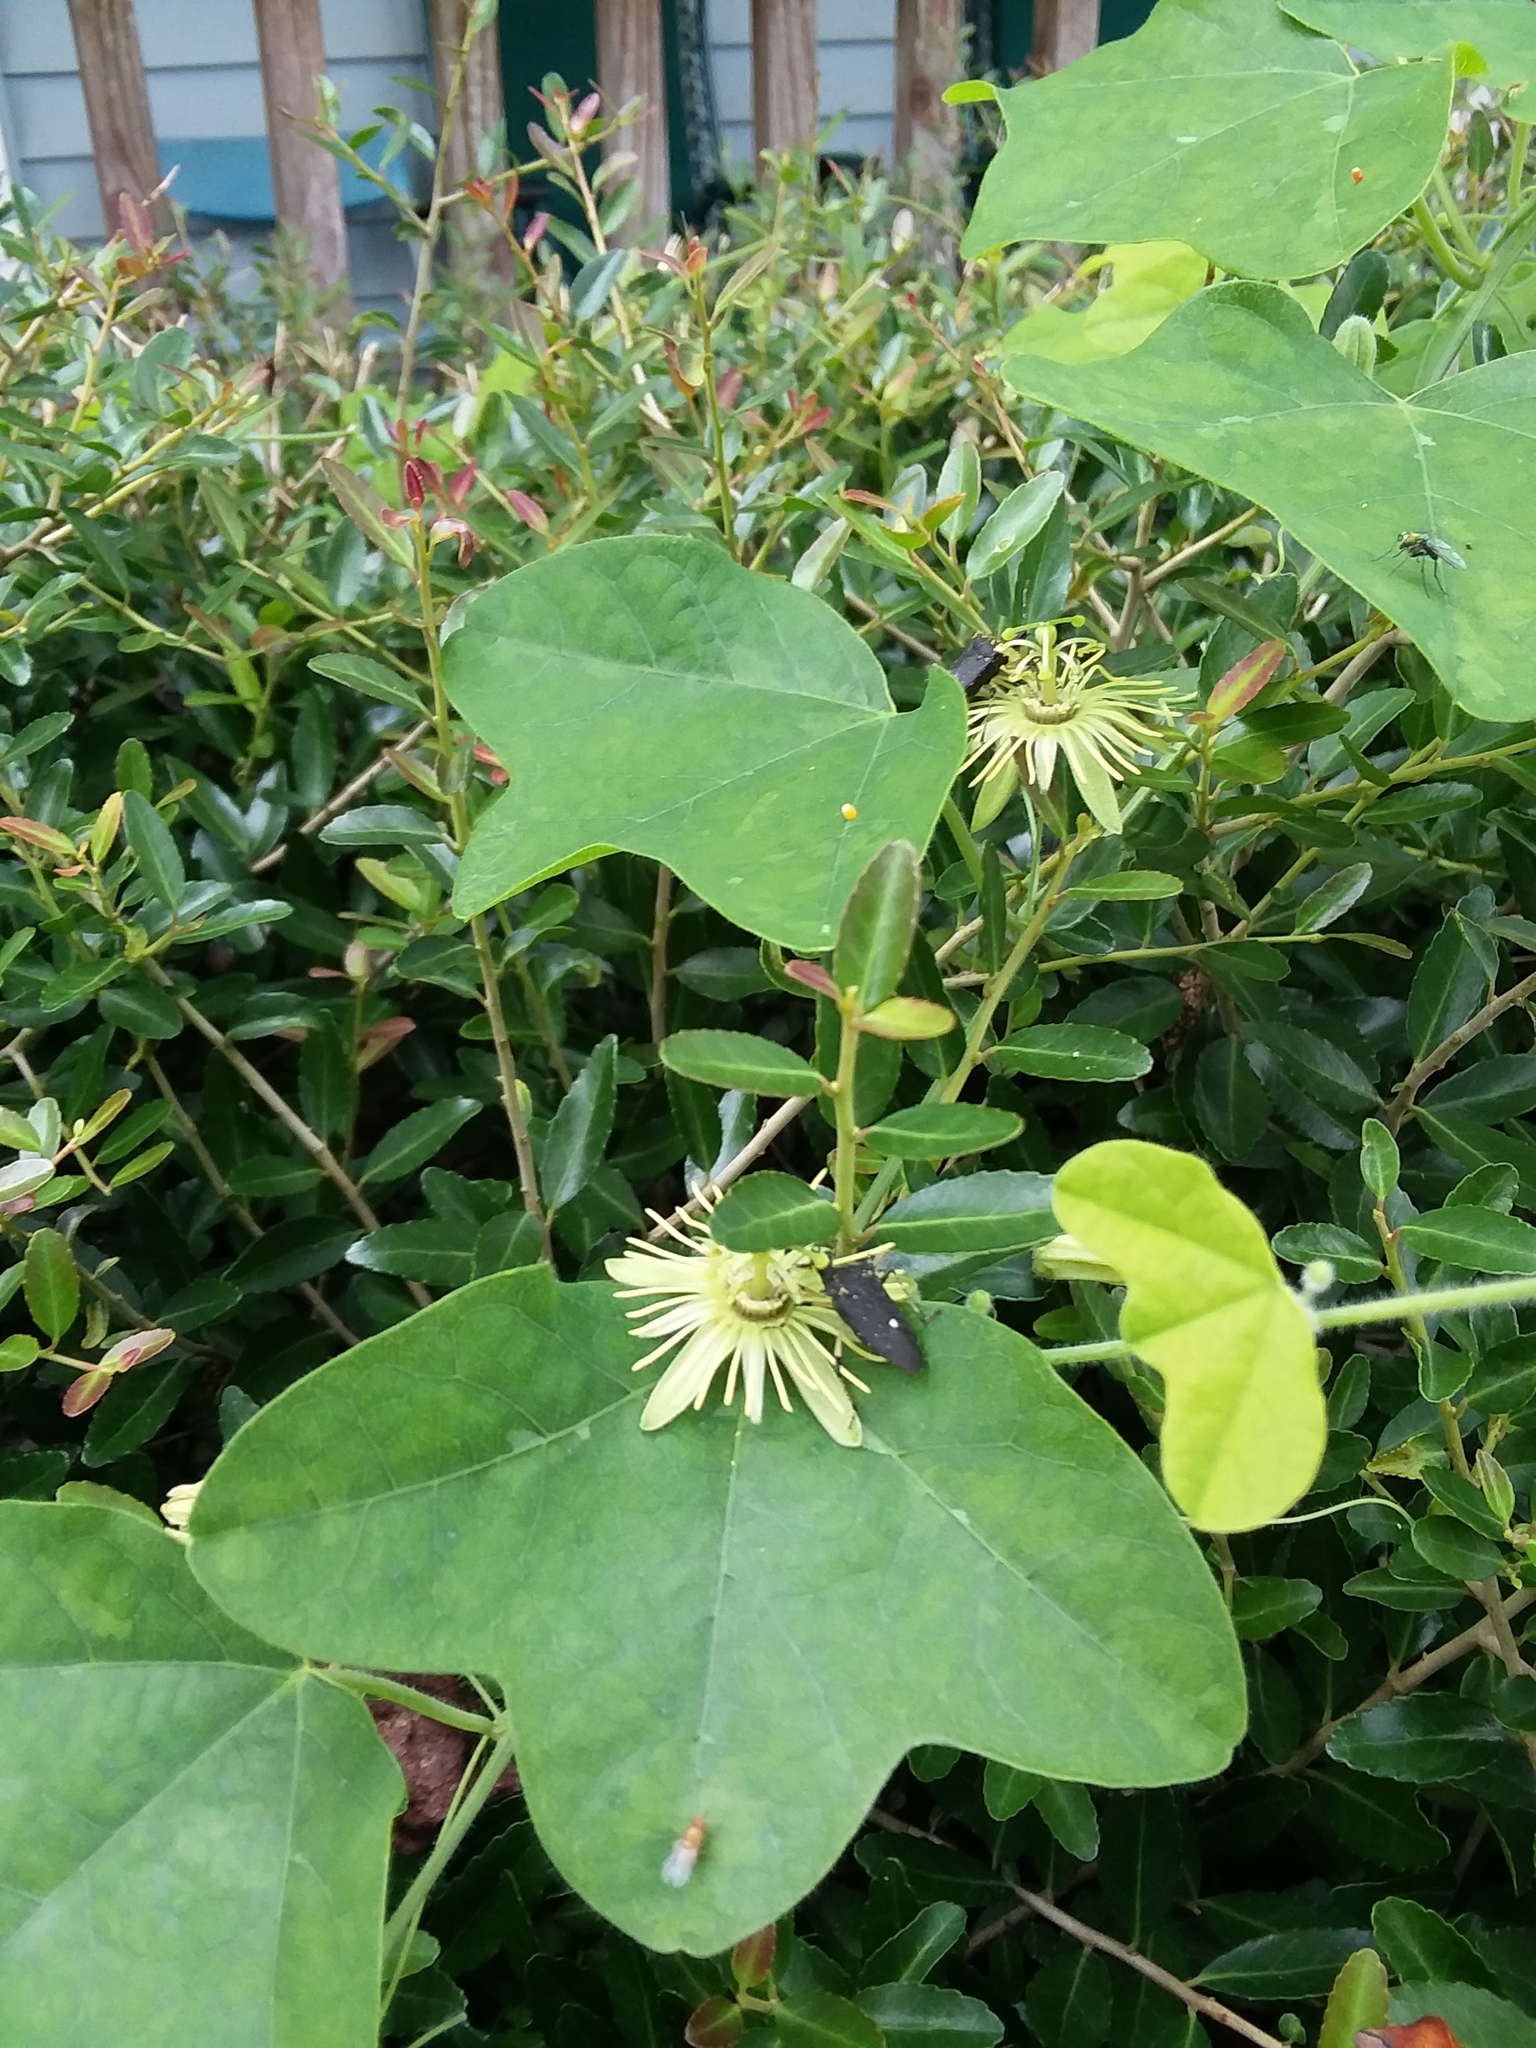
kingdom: Animalia
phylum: Arthropoda
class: Insecta
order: Hemiptera
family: Pentatomidae
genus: Proxys
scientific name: Proxys punctulatus
